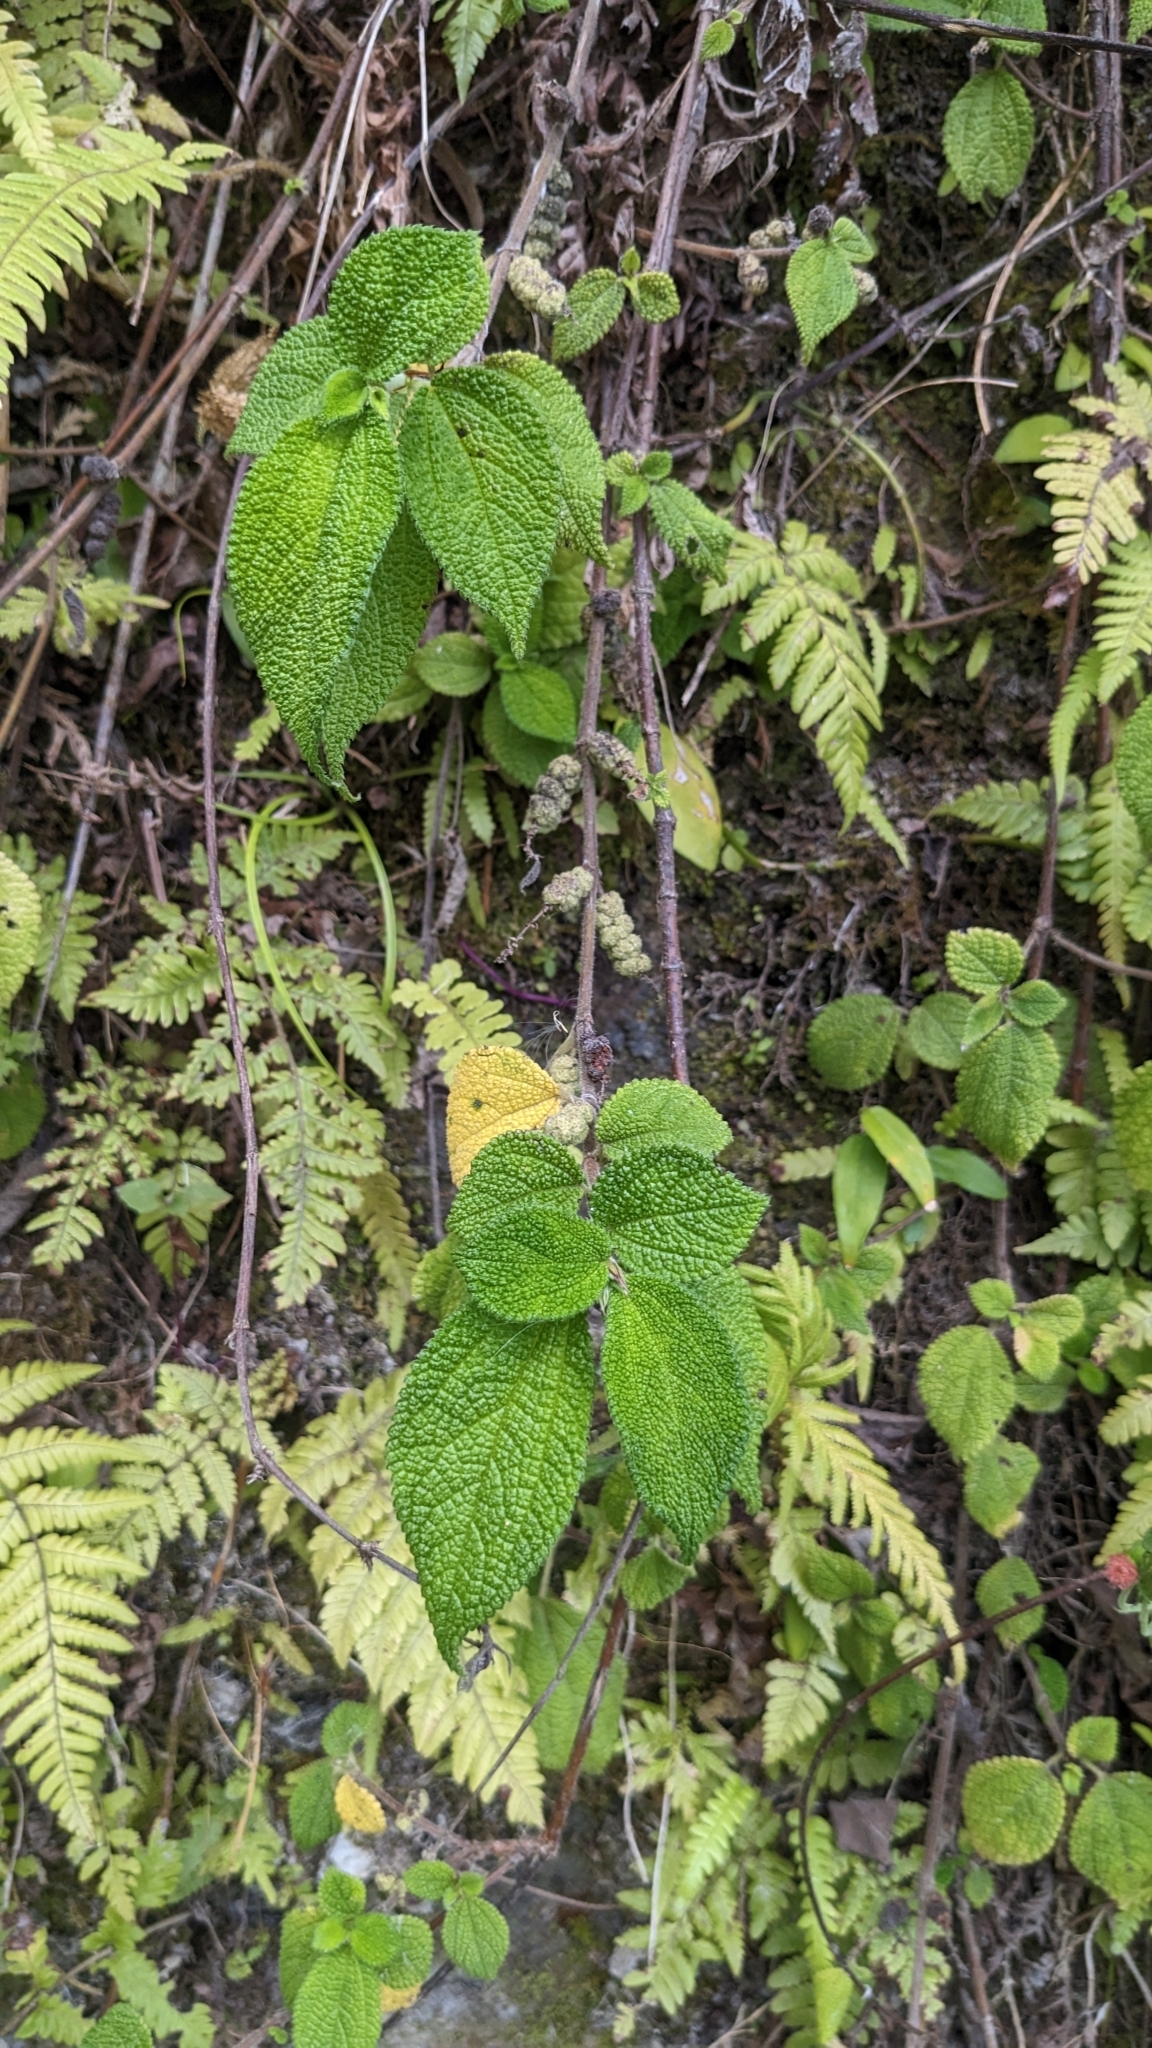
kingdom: Plantae
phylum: Tracheophyta
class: Magnoliopsida
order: Rosales
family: Urticaceae
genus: Boehmeria
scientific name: Boehmeria pilosiuscula
